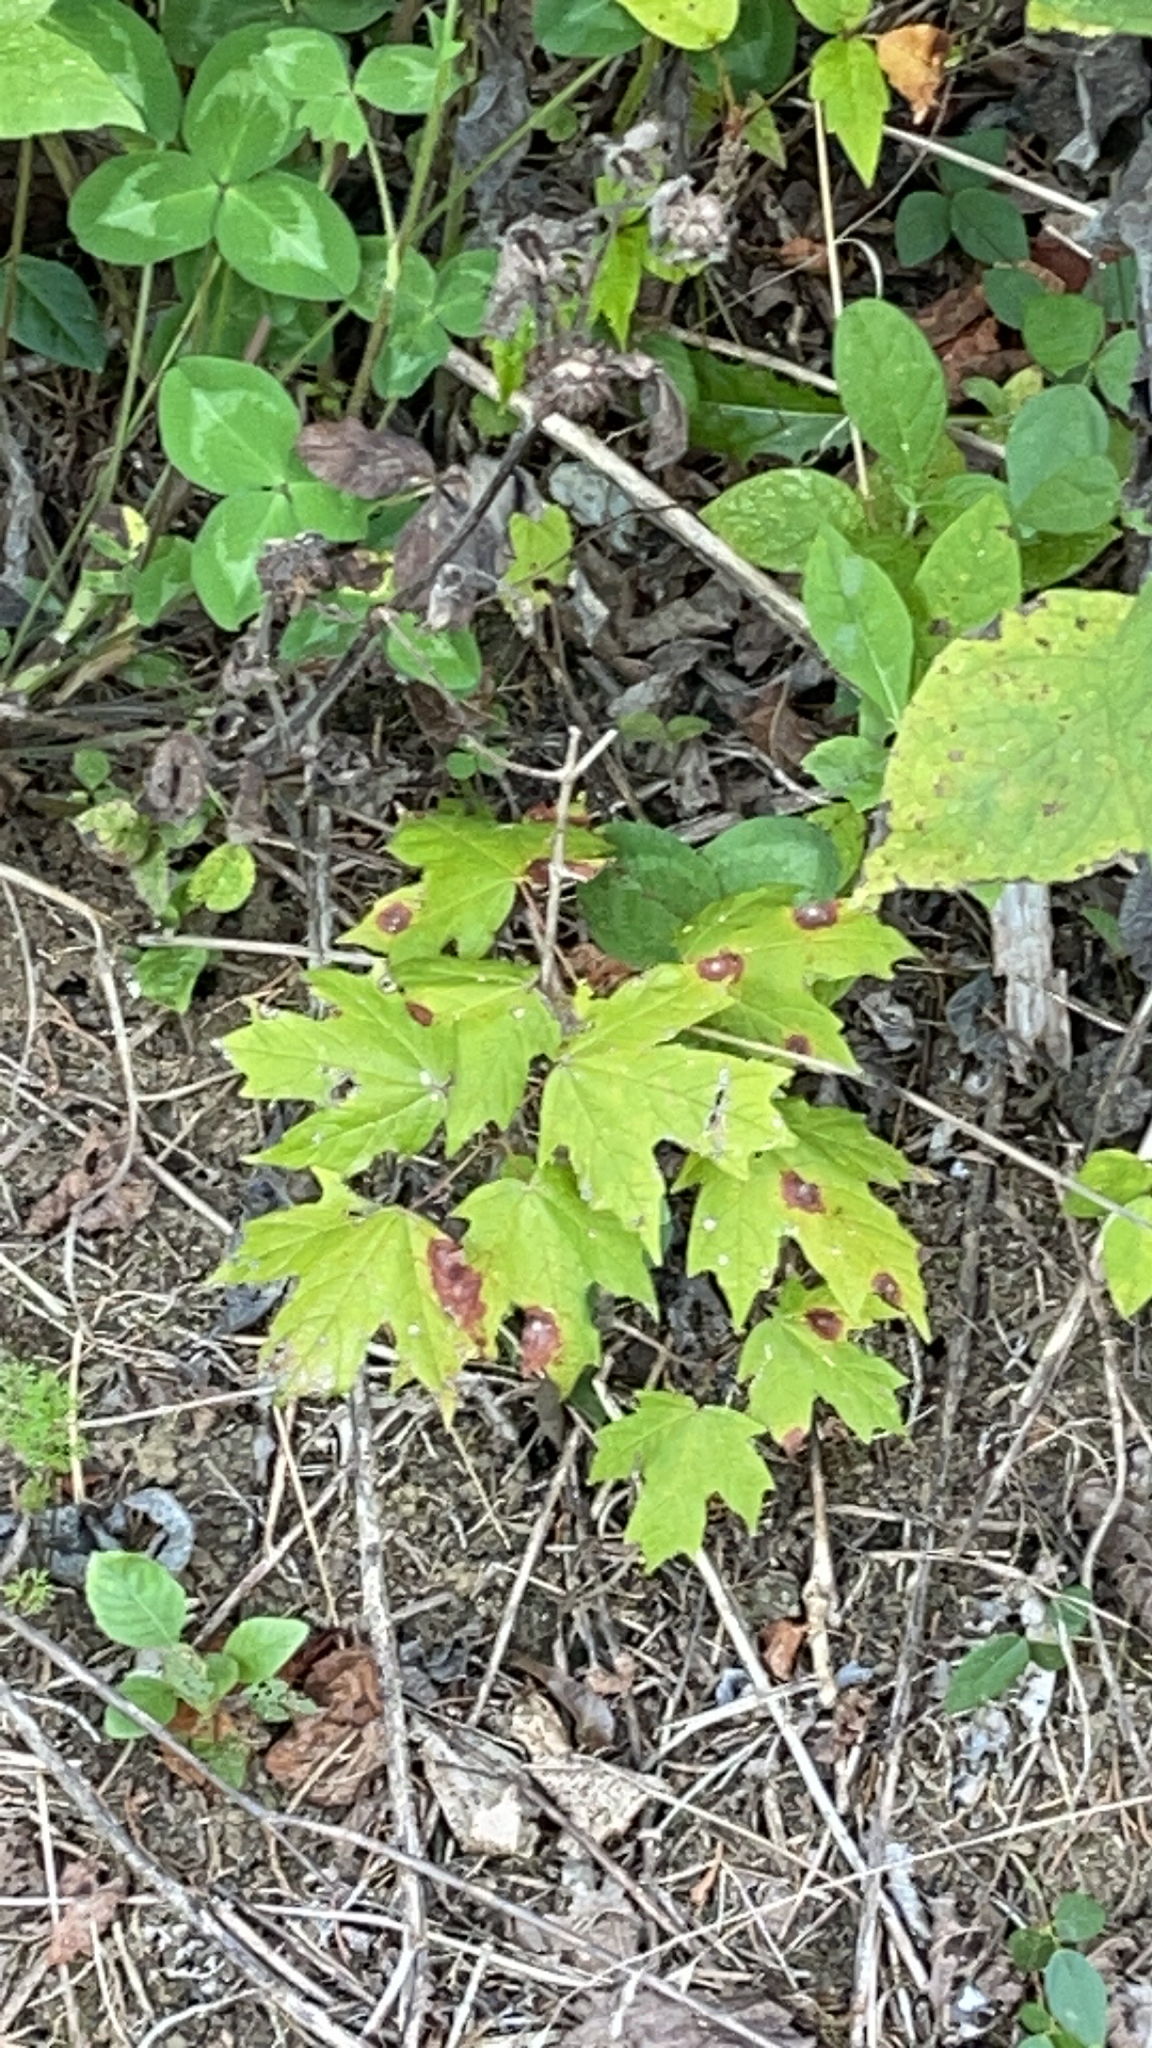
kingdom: Plantae
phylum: Tracheophyta
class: Magnoliopsida
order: Sapindales
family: Sapindaceae
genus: Acer
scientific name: Acer floridanum
